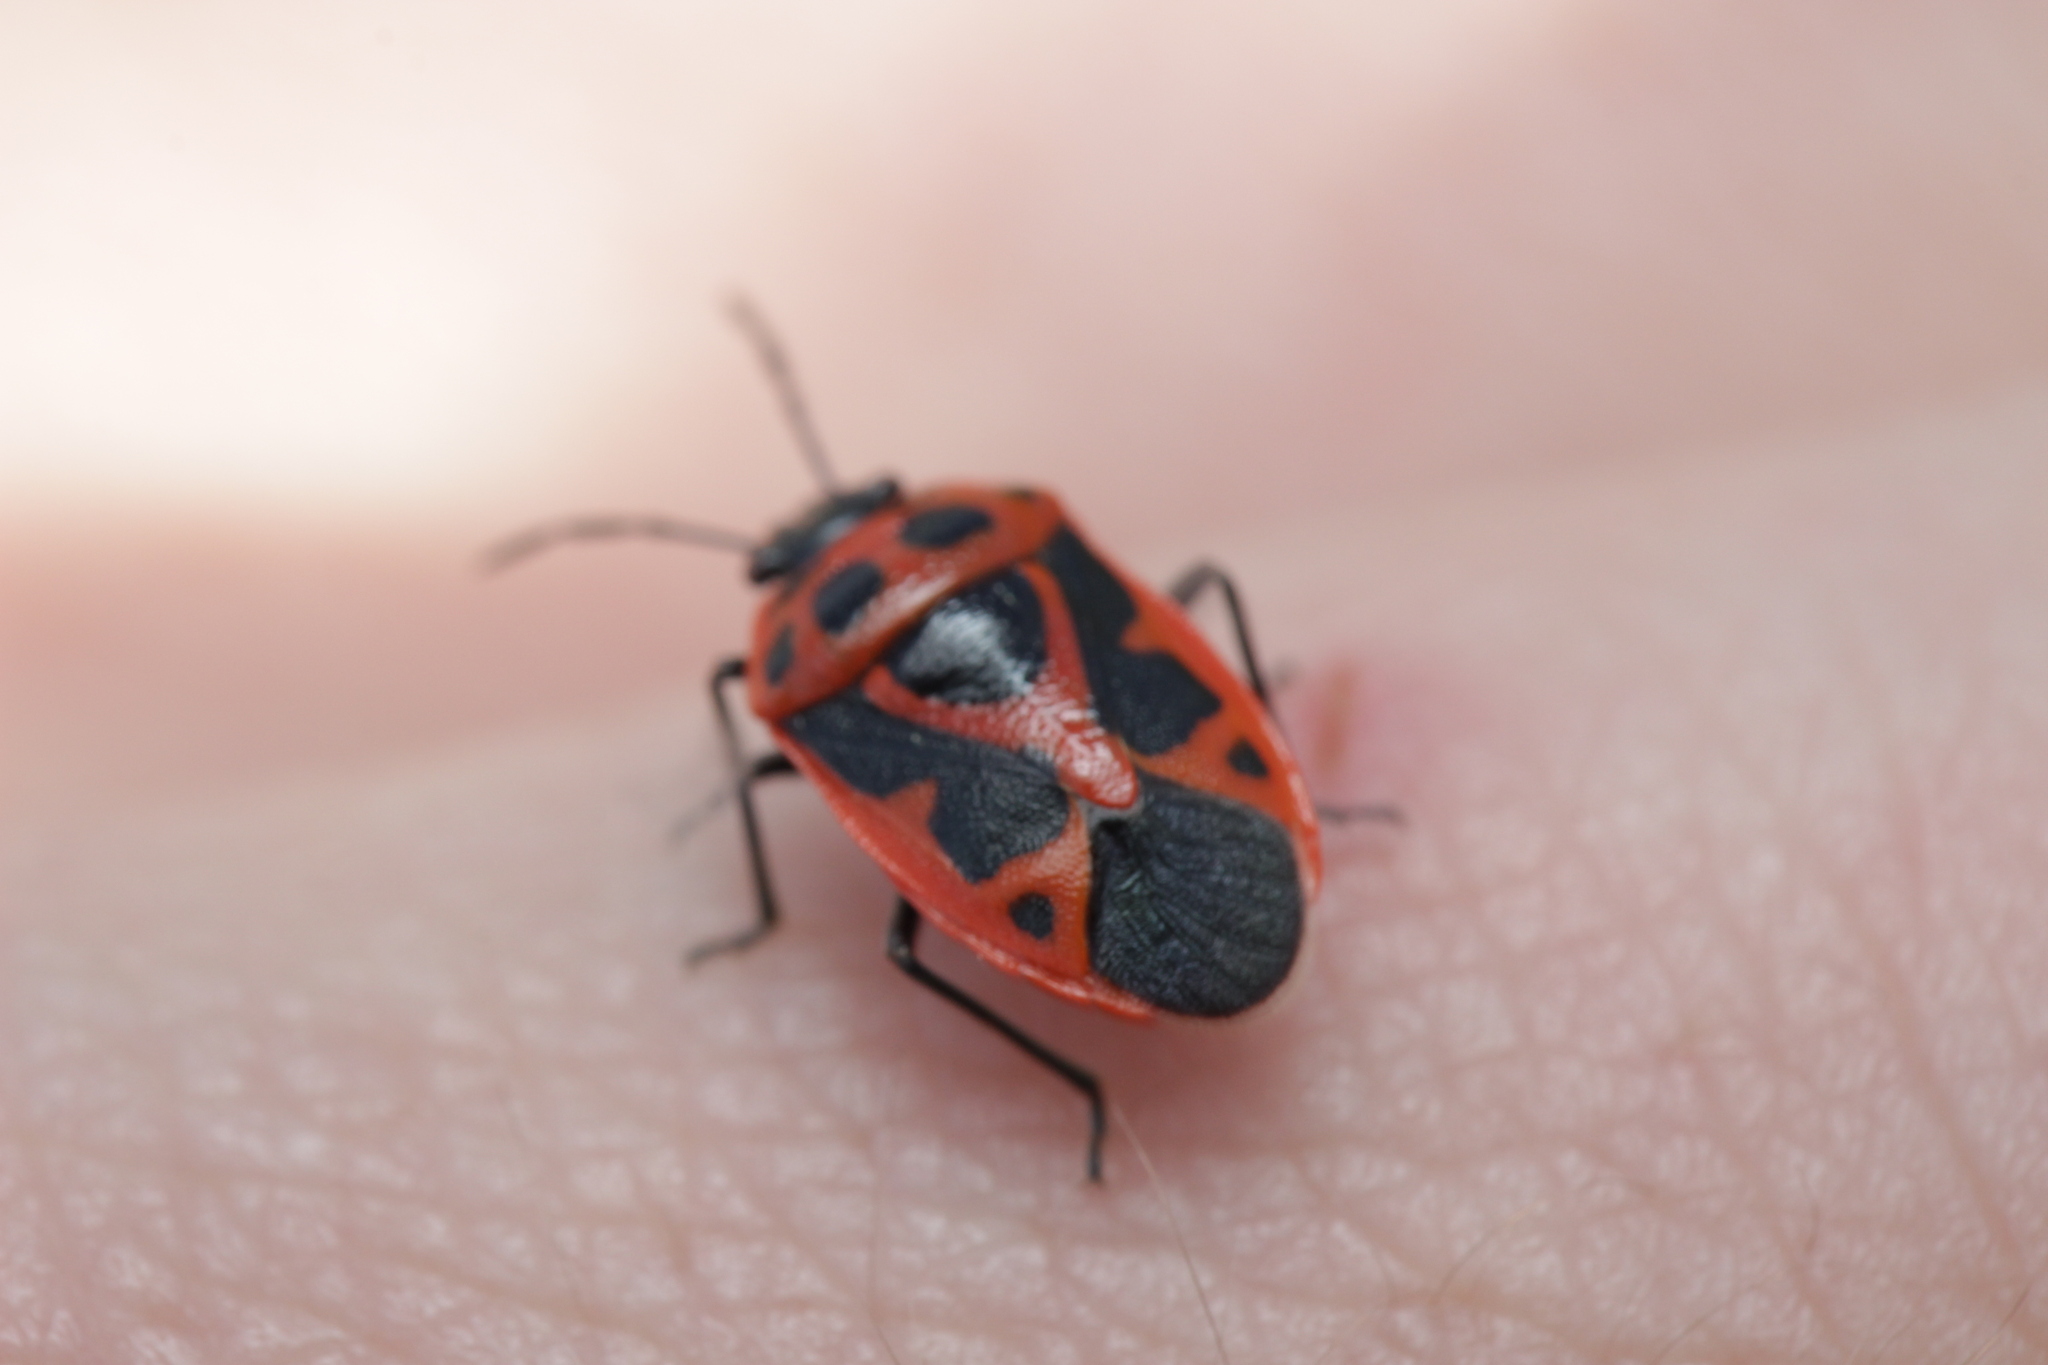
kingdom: Animalia
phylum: Arthropoda
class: Insecta
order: Hemiptera
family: Pentatomidae
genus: Eurydema
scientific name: Eurydema dominulus
